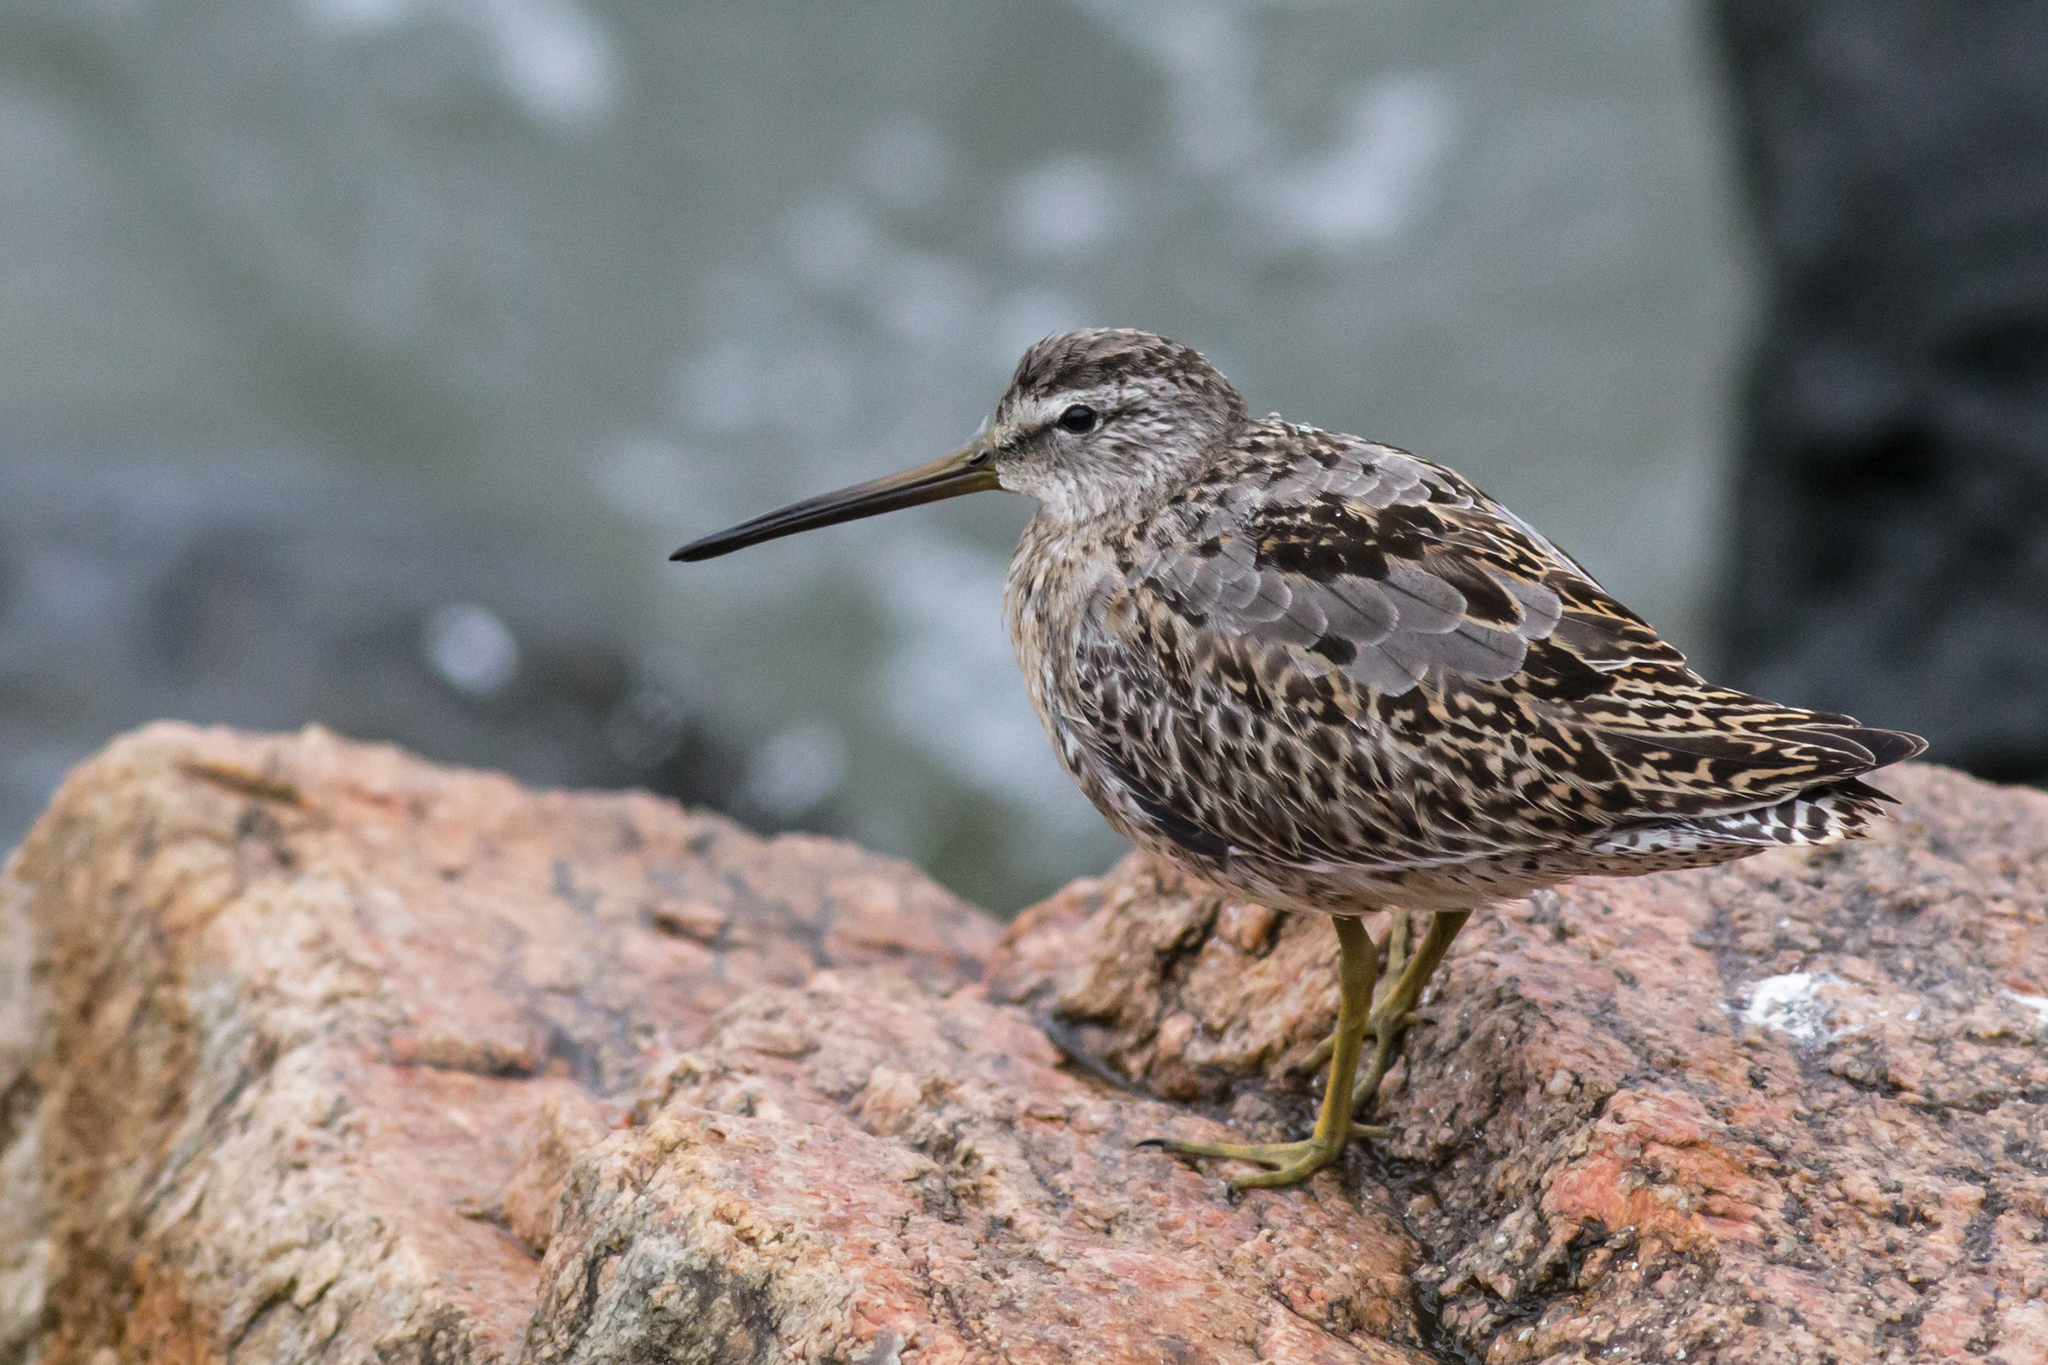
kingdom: Animalia
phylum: Chordata
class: Aves
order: Charadriiformes
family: Scolopacidae
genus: Limnodromus
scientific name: Limnodromus griseus
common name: Short-billed dowitcher
